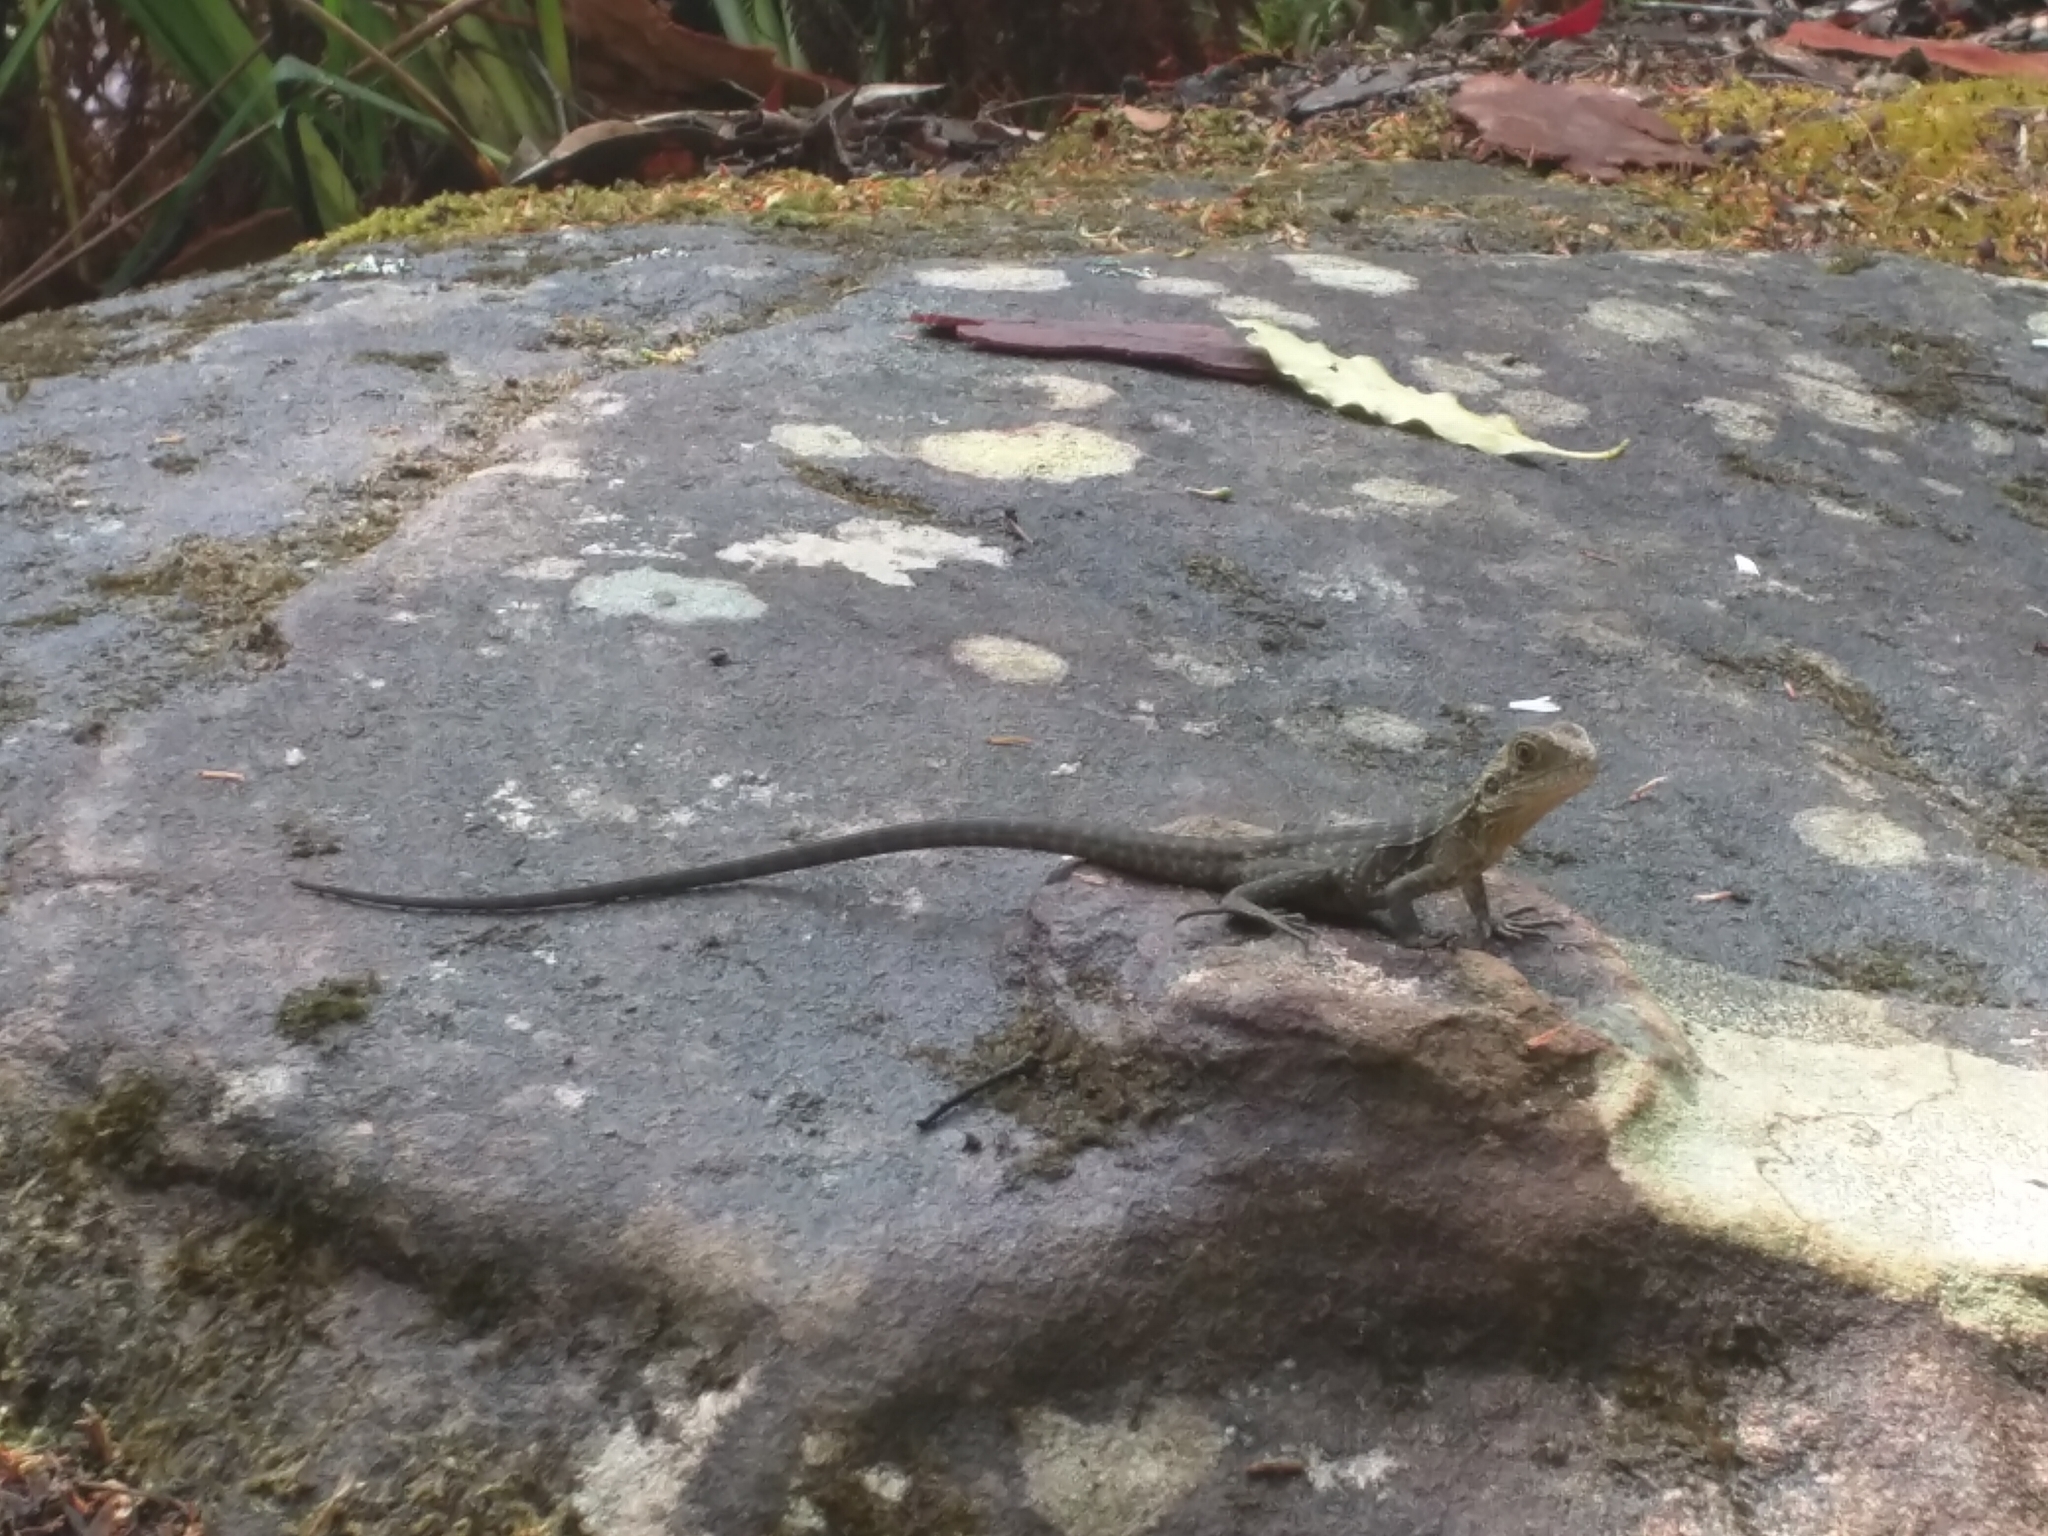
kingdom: Animalia
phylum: Chordata
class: Squamata
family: Agamidae
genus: Intellagama
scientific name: Intellagama lesueurii
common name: Eastern water dragon
